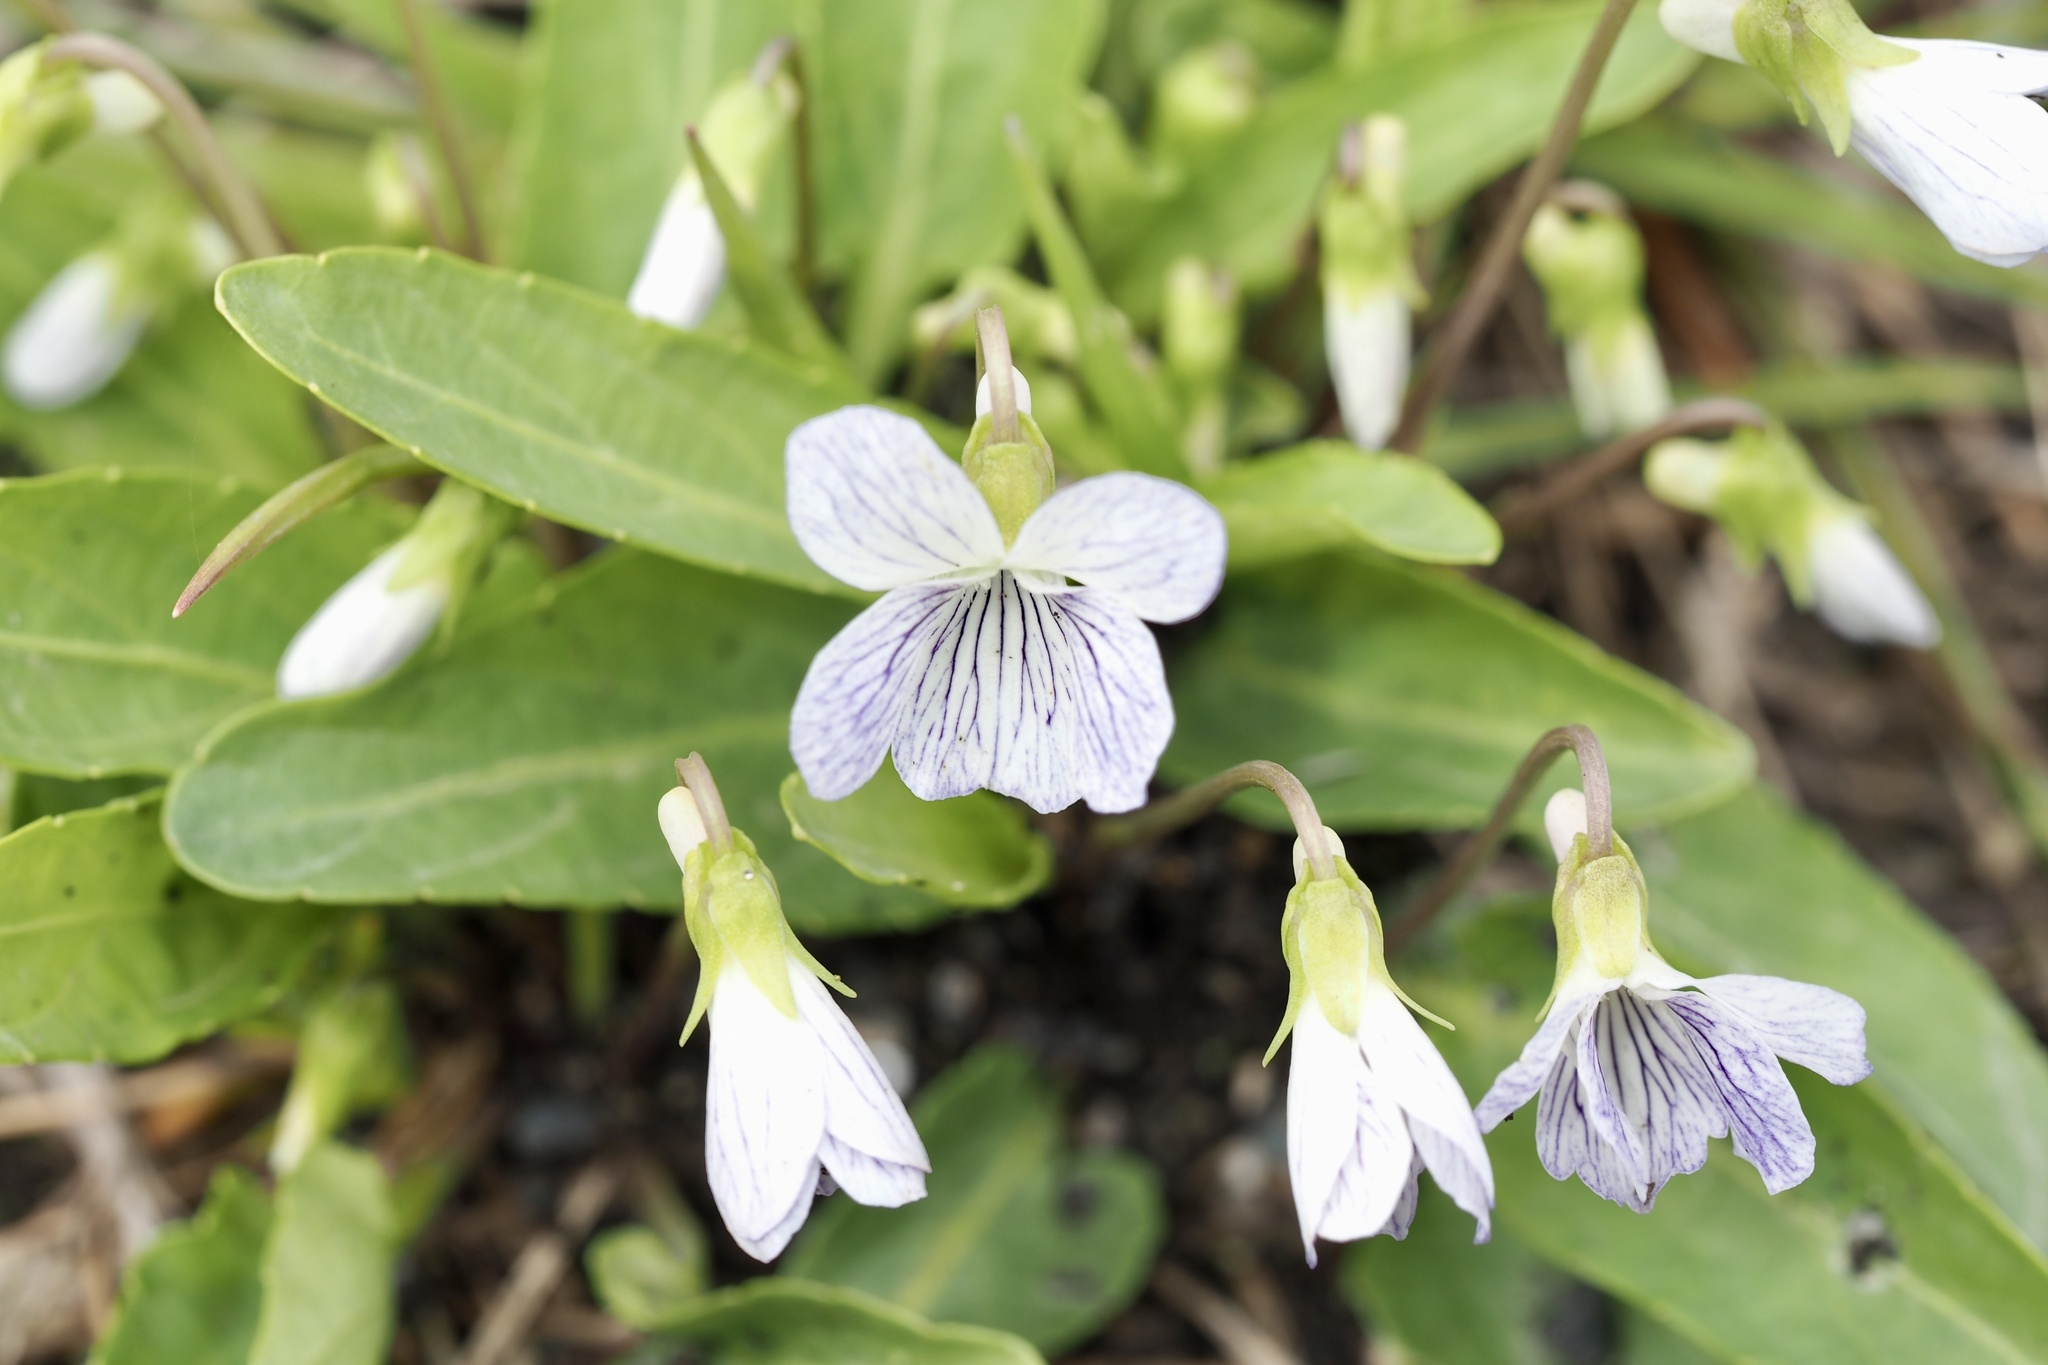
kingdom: Plantae
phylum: Tracheophyta
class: Magnoliopsida
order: Malpighiales
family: Violaceae
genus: Viola
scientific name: Viola betonicifolia
